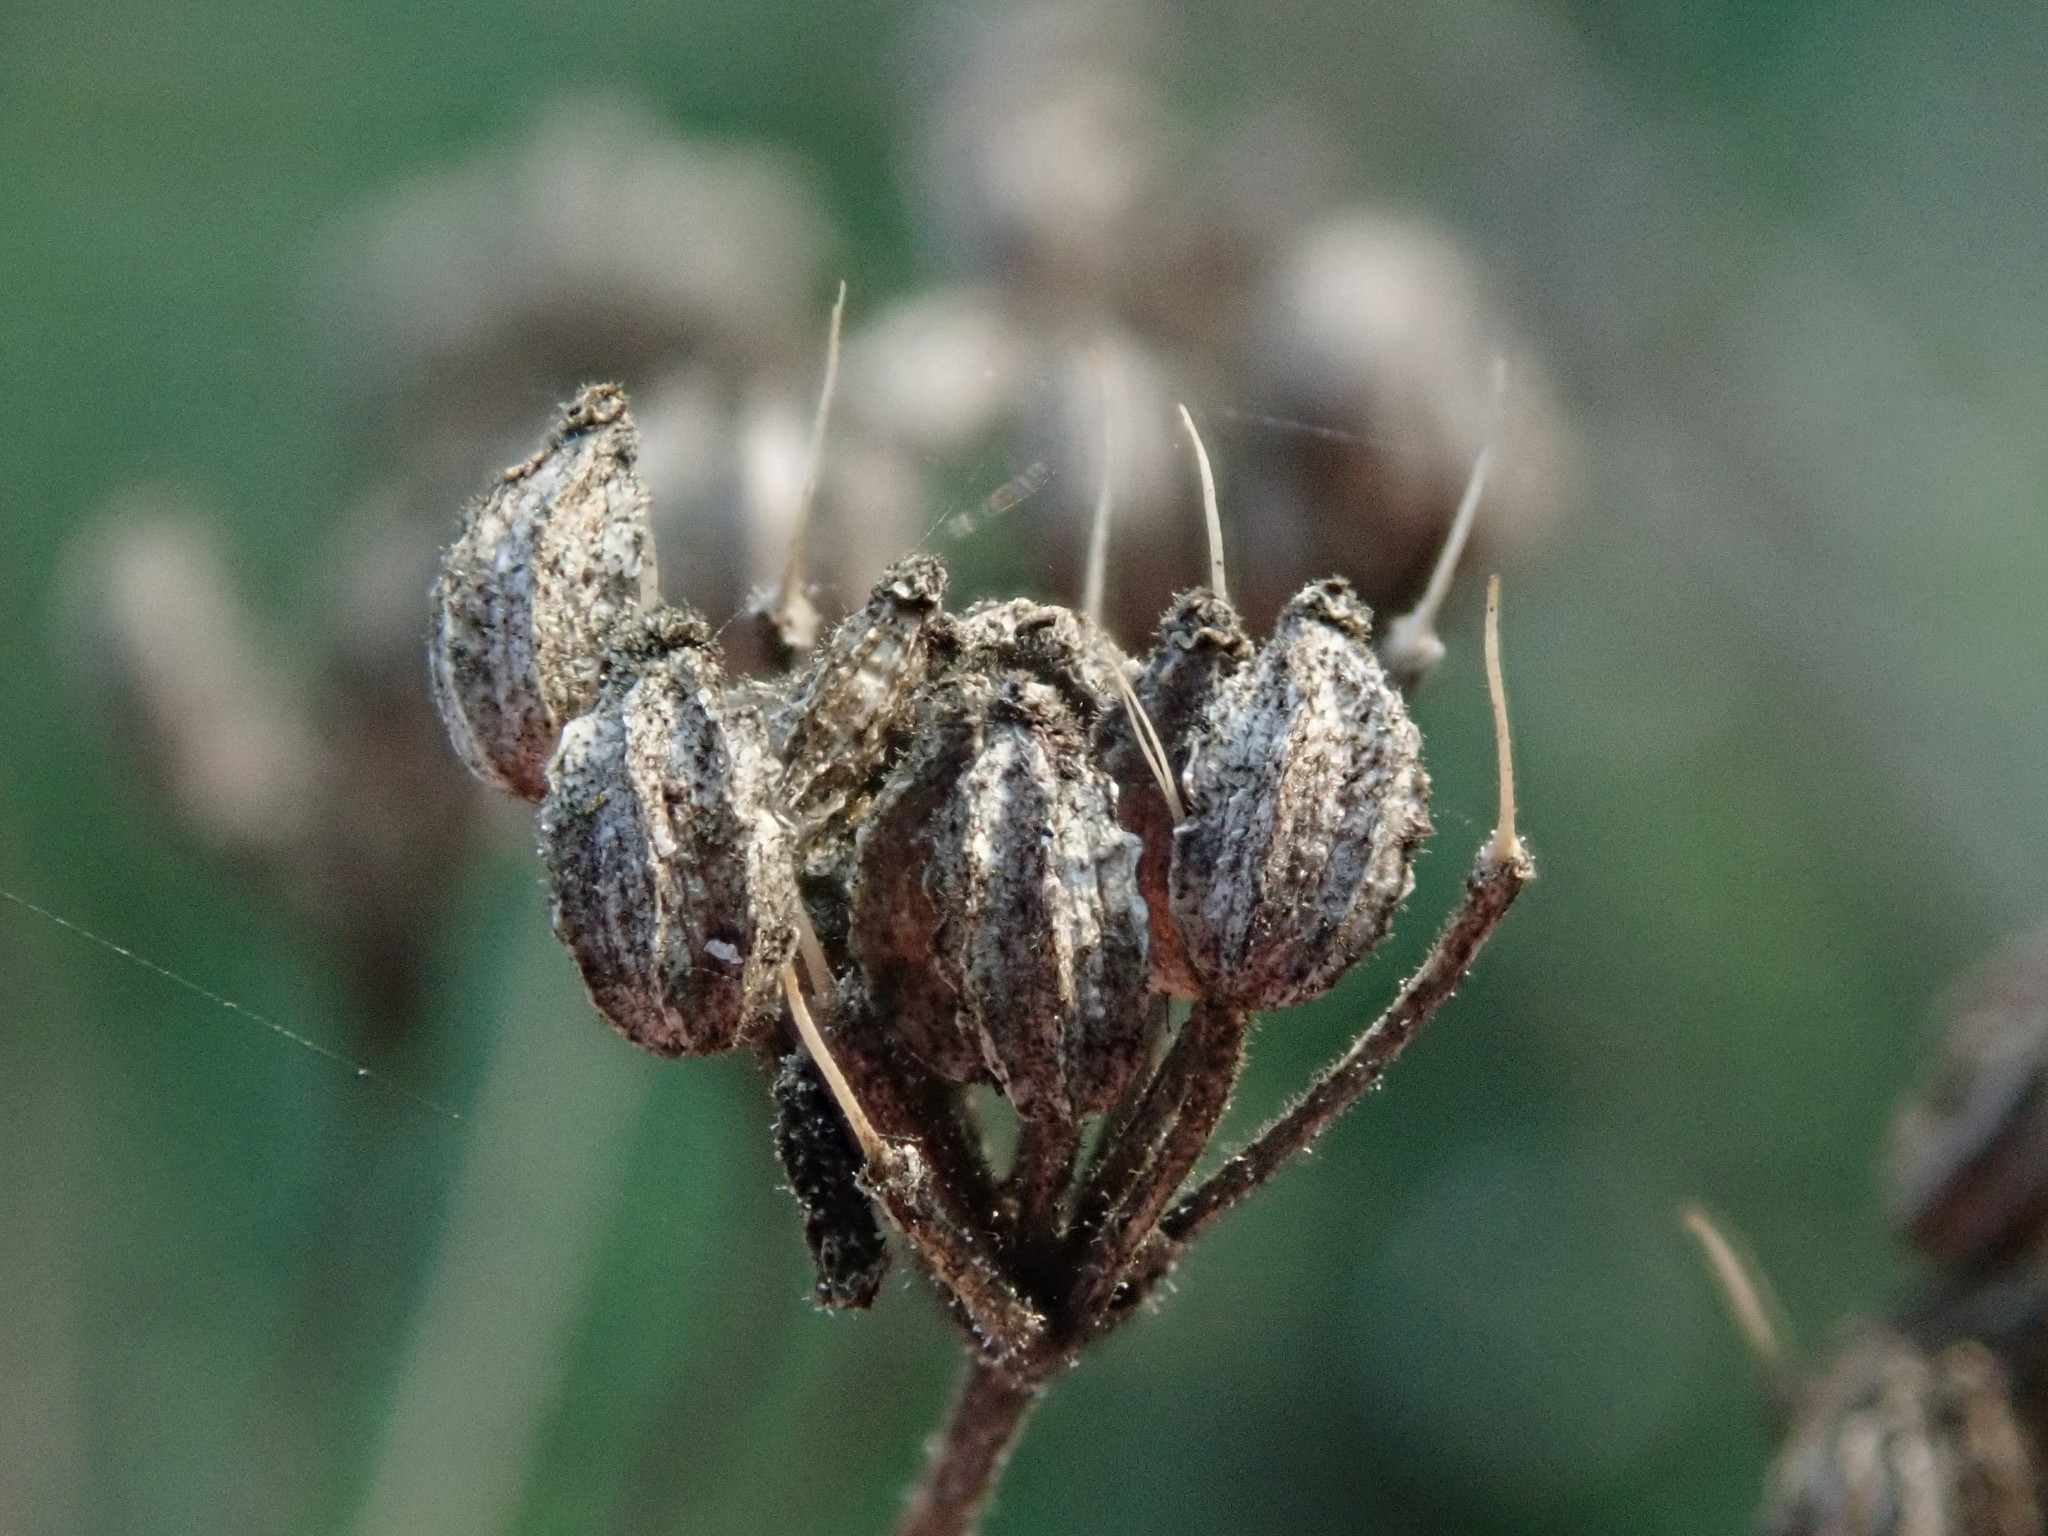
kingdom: Plantae
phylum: Tracheophyta
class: Magnoliopsida
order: Apiales
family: Apiaceae
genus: Conium
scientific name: Conium maculatum
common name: Hemlock
